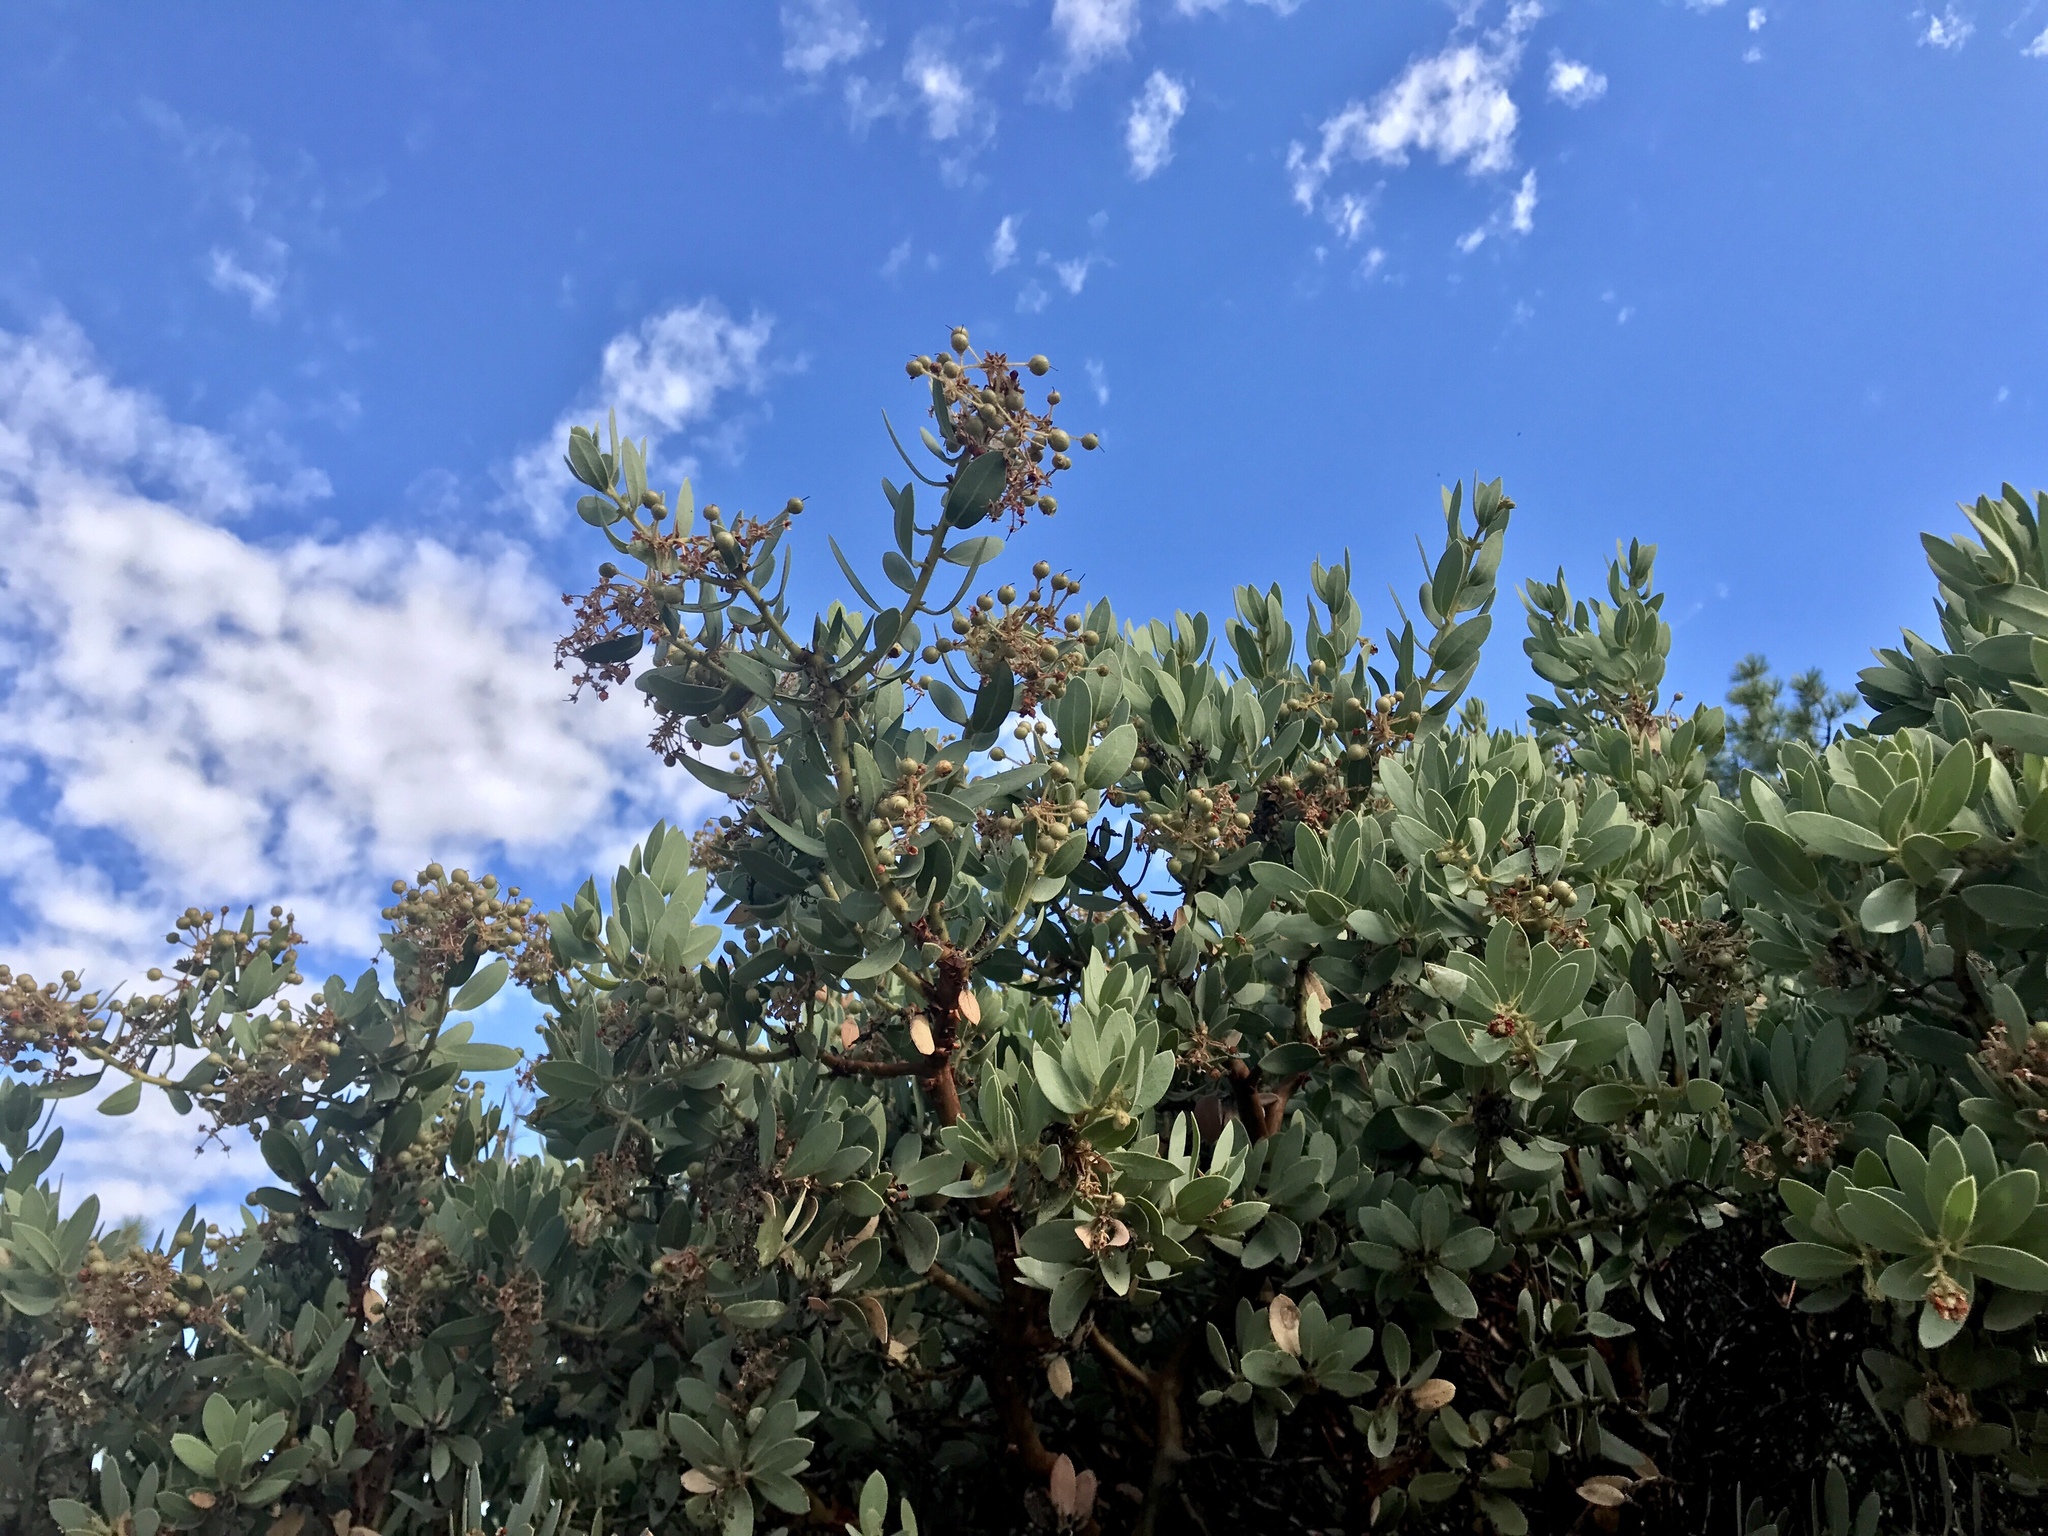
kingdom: Plantae
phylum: Tracheophyta
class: Magnoliopsida
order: Ericales
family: Ericaceae
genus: Arctostaphylos
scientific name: Arctostaphylos pringlei
